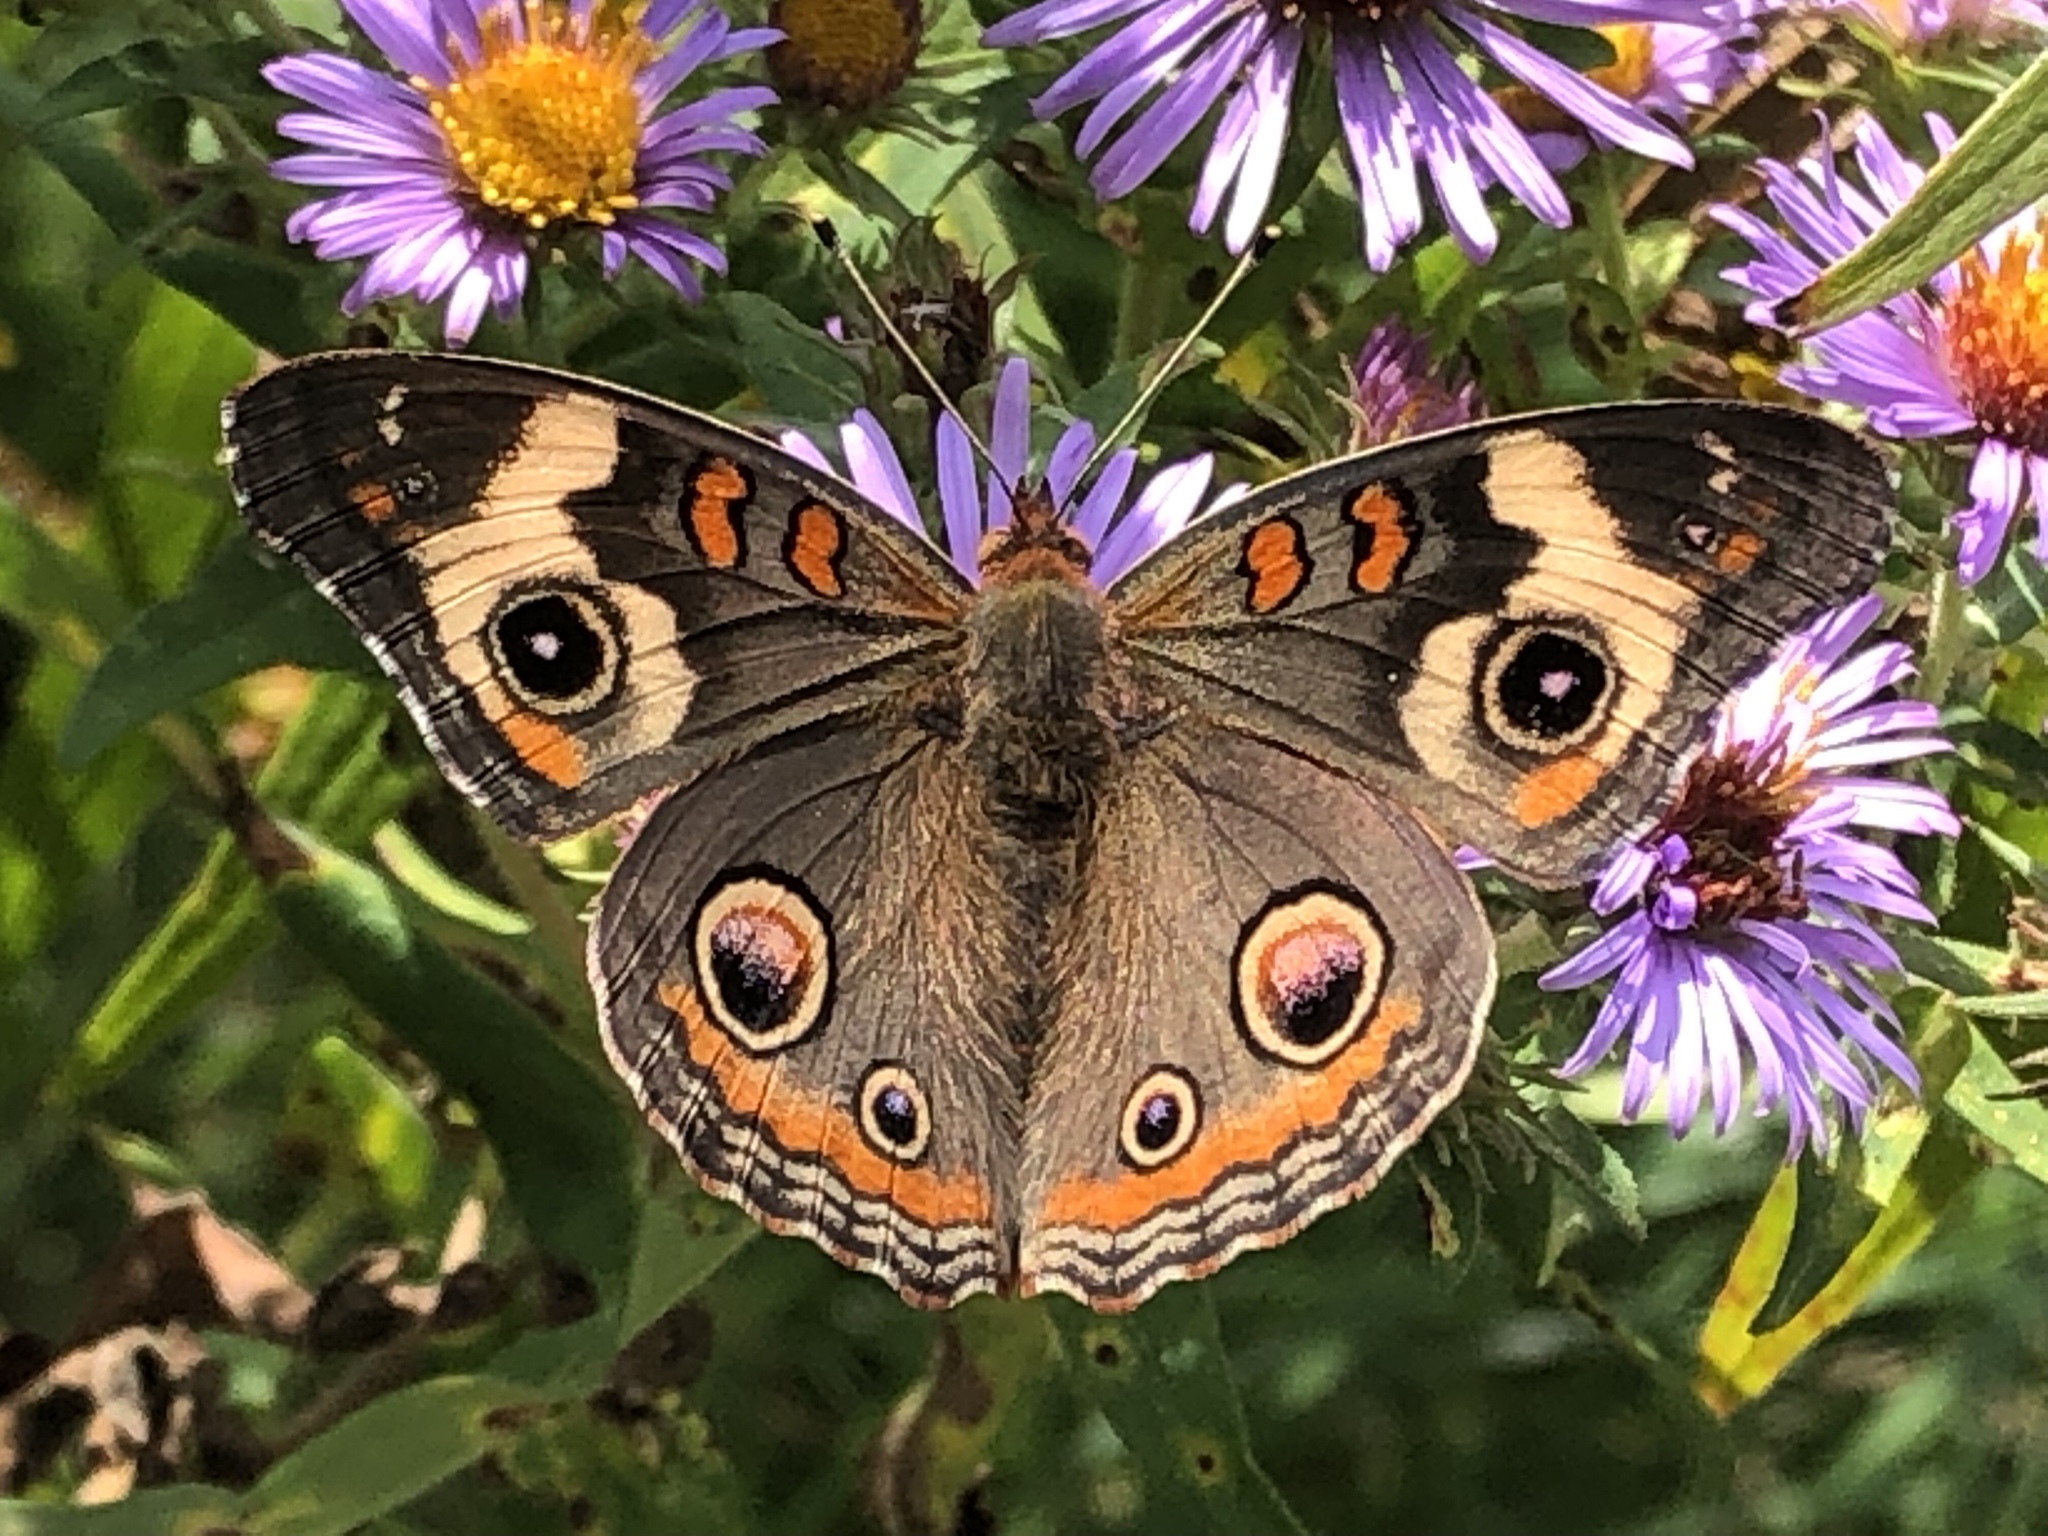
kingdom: Animalia
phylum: Arthropoda
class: Insecta
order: Lepidoptera
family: Nymphalidae
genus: Junonia
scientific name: Junonia coenia
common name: Common buckeye
